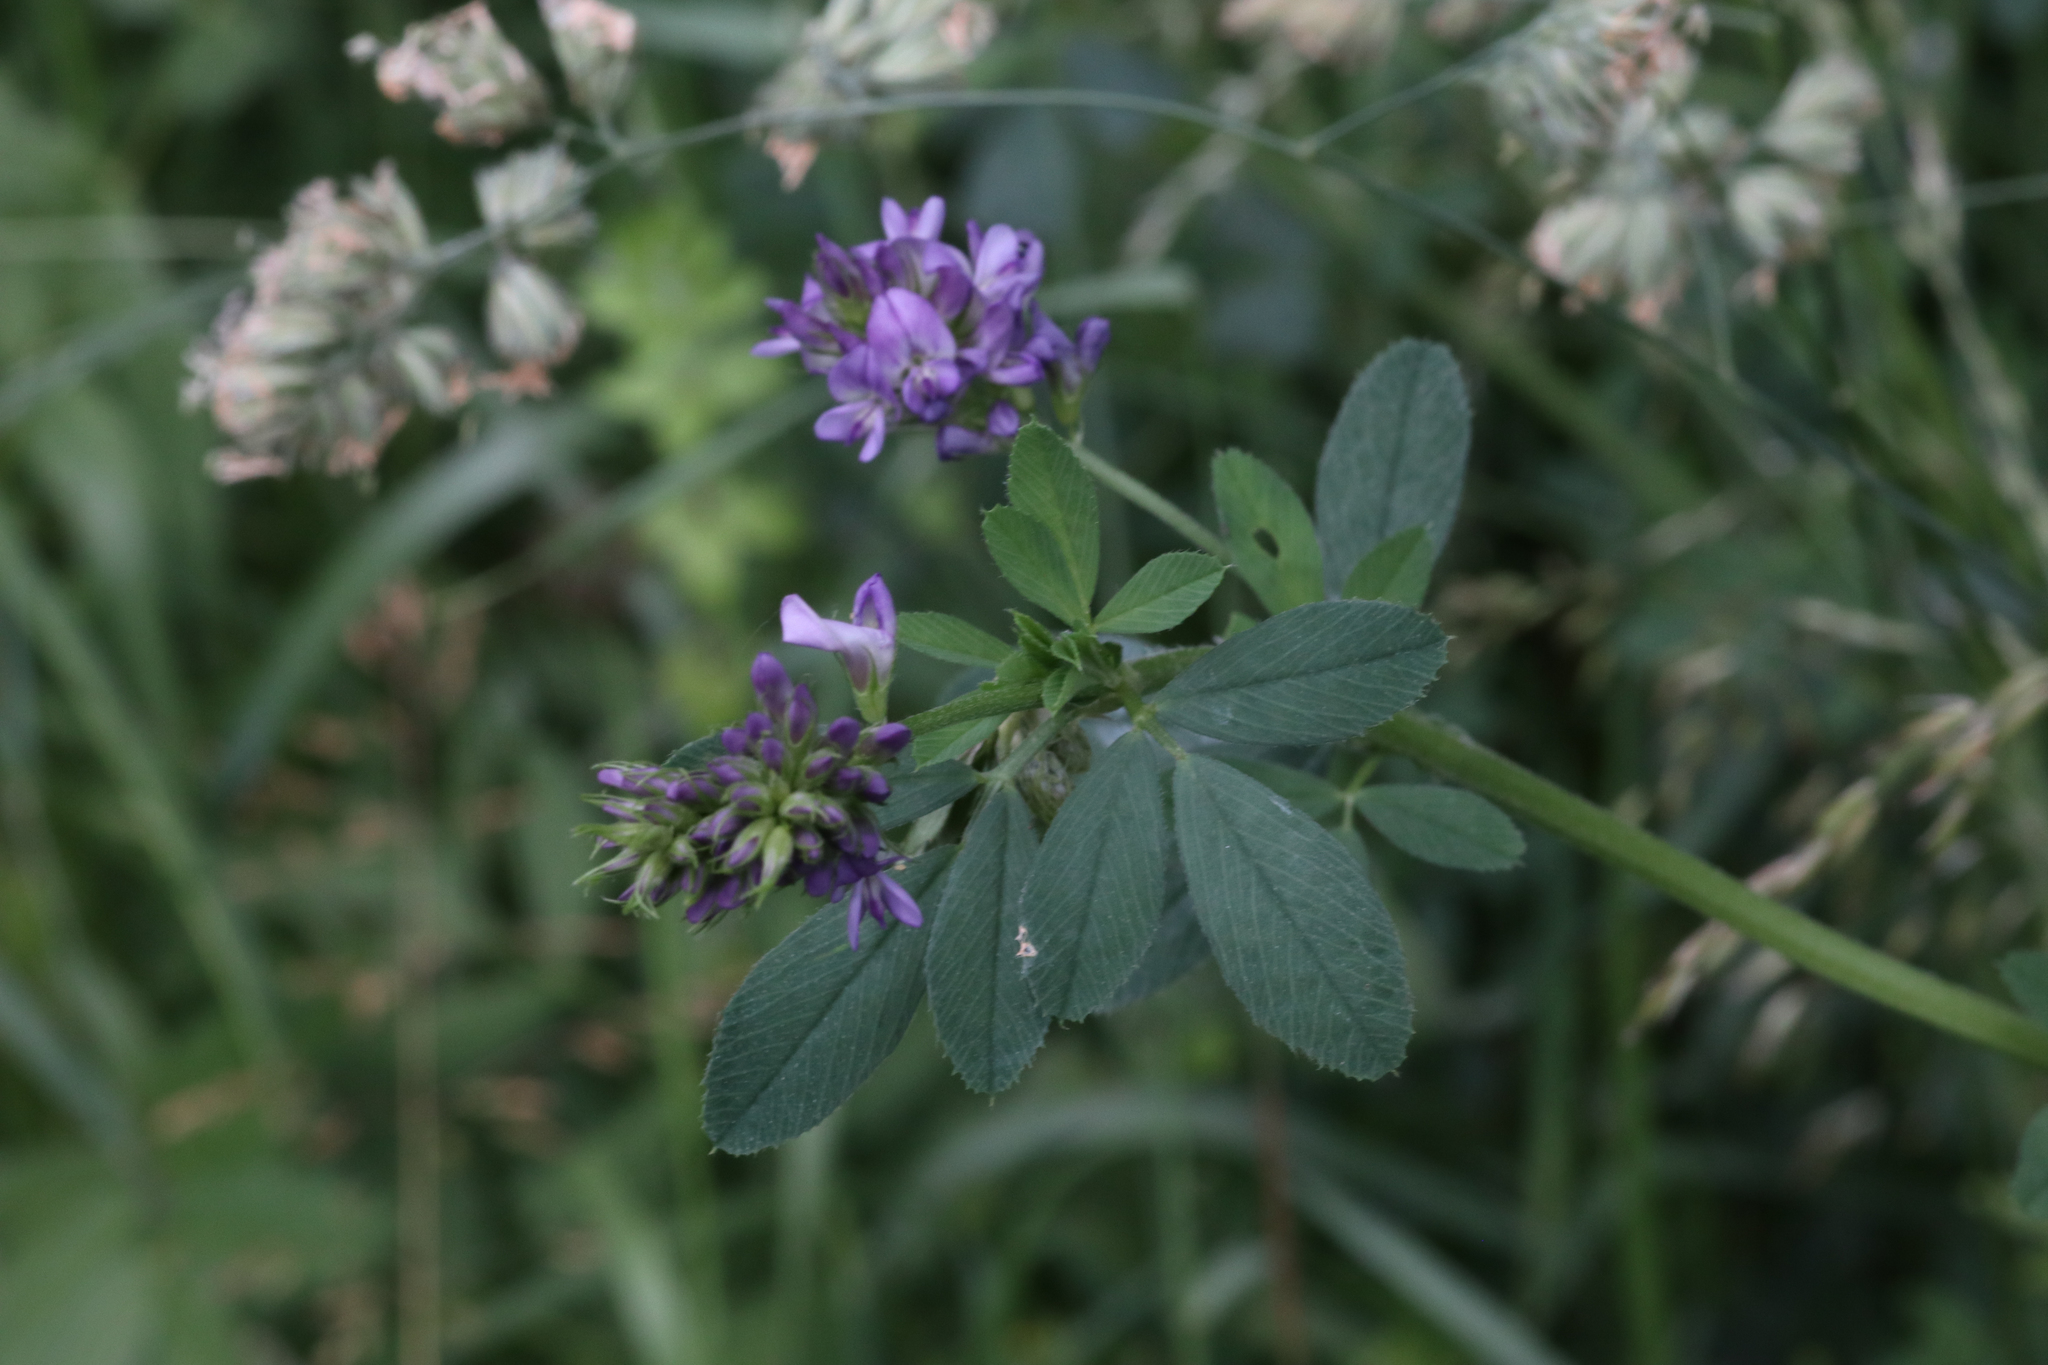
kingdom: Plantae
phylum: Tracheophyta
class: Magnoliopsida
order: Fabales
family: Fabaceae
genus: Medicago
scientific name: Medicago sativa
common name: Alfalfa
